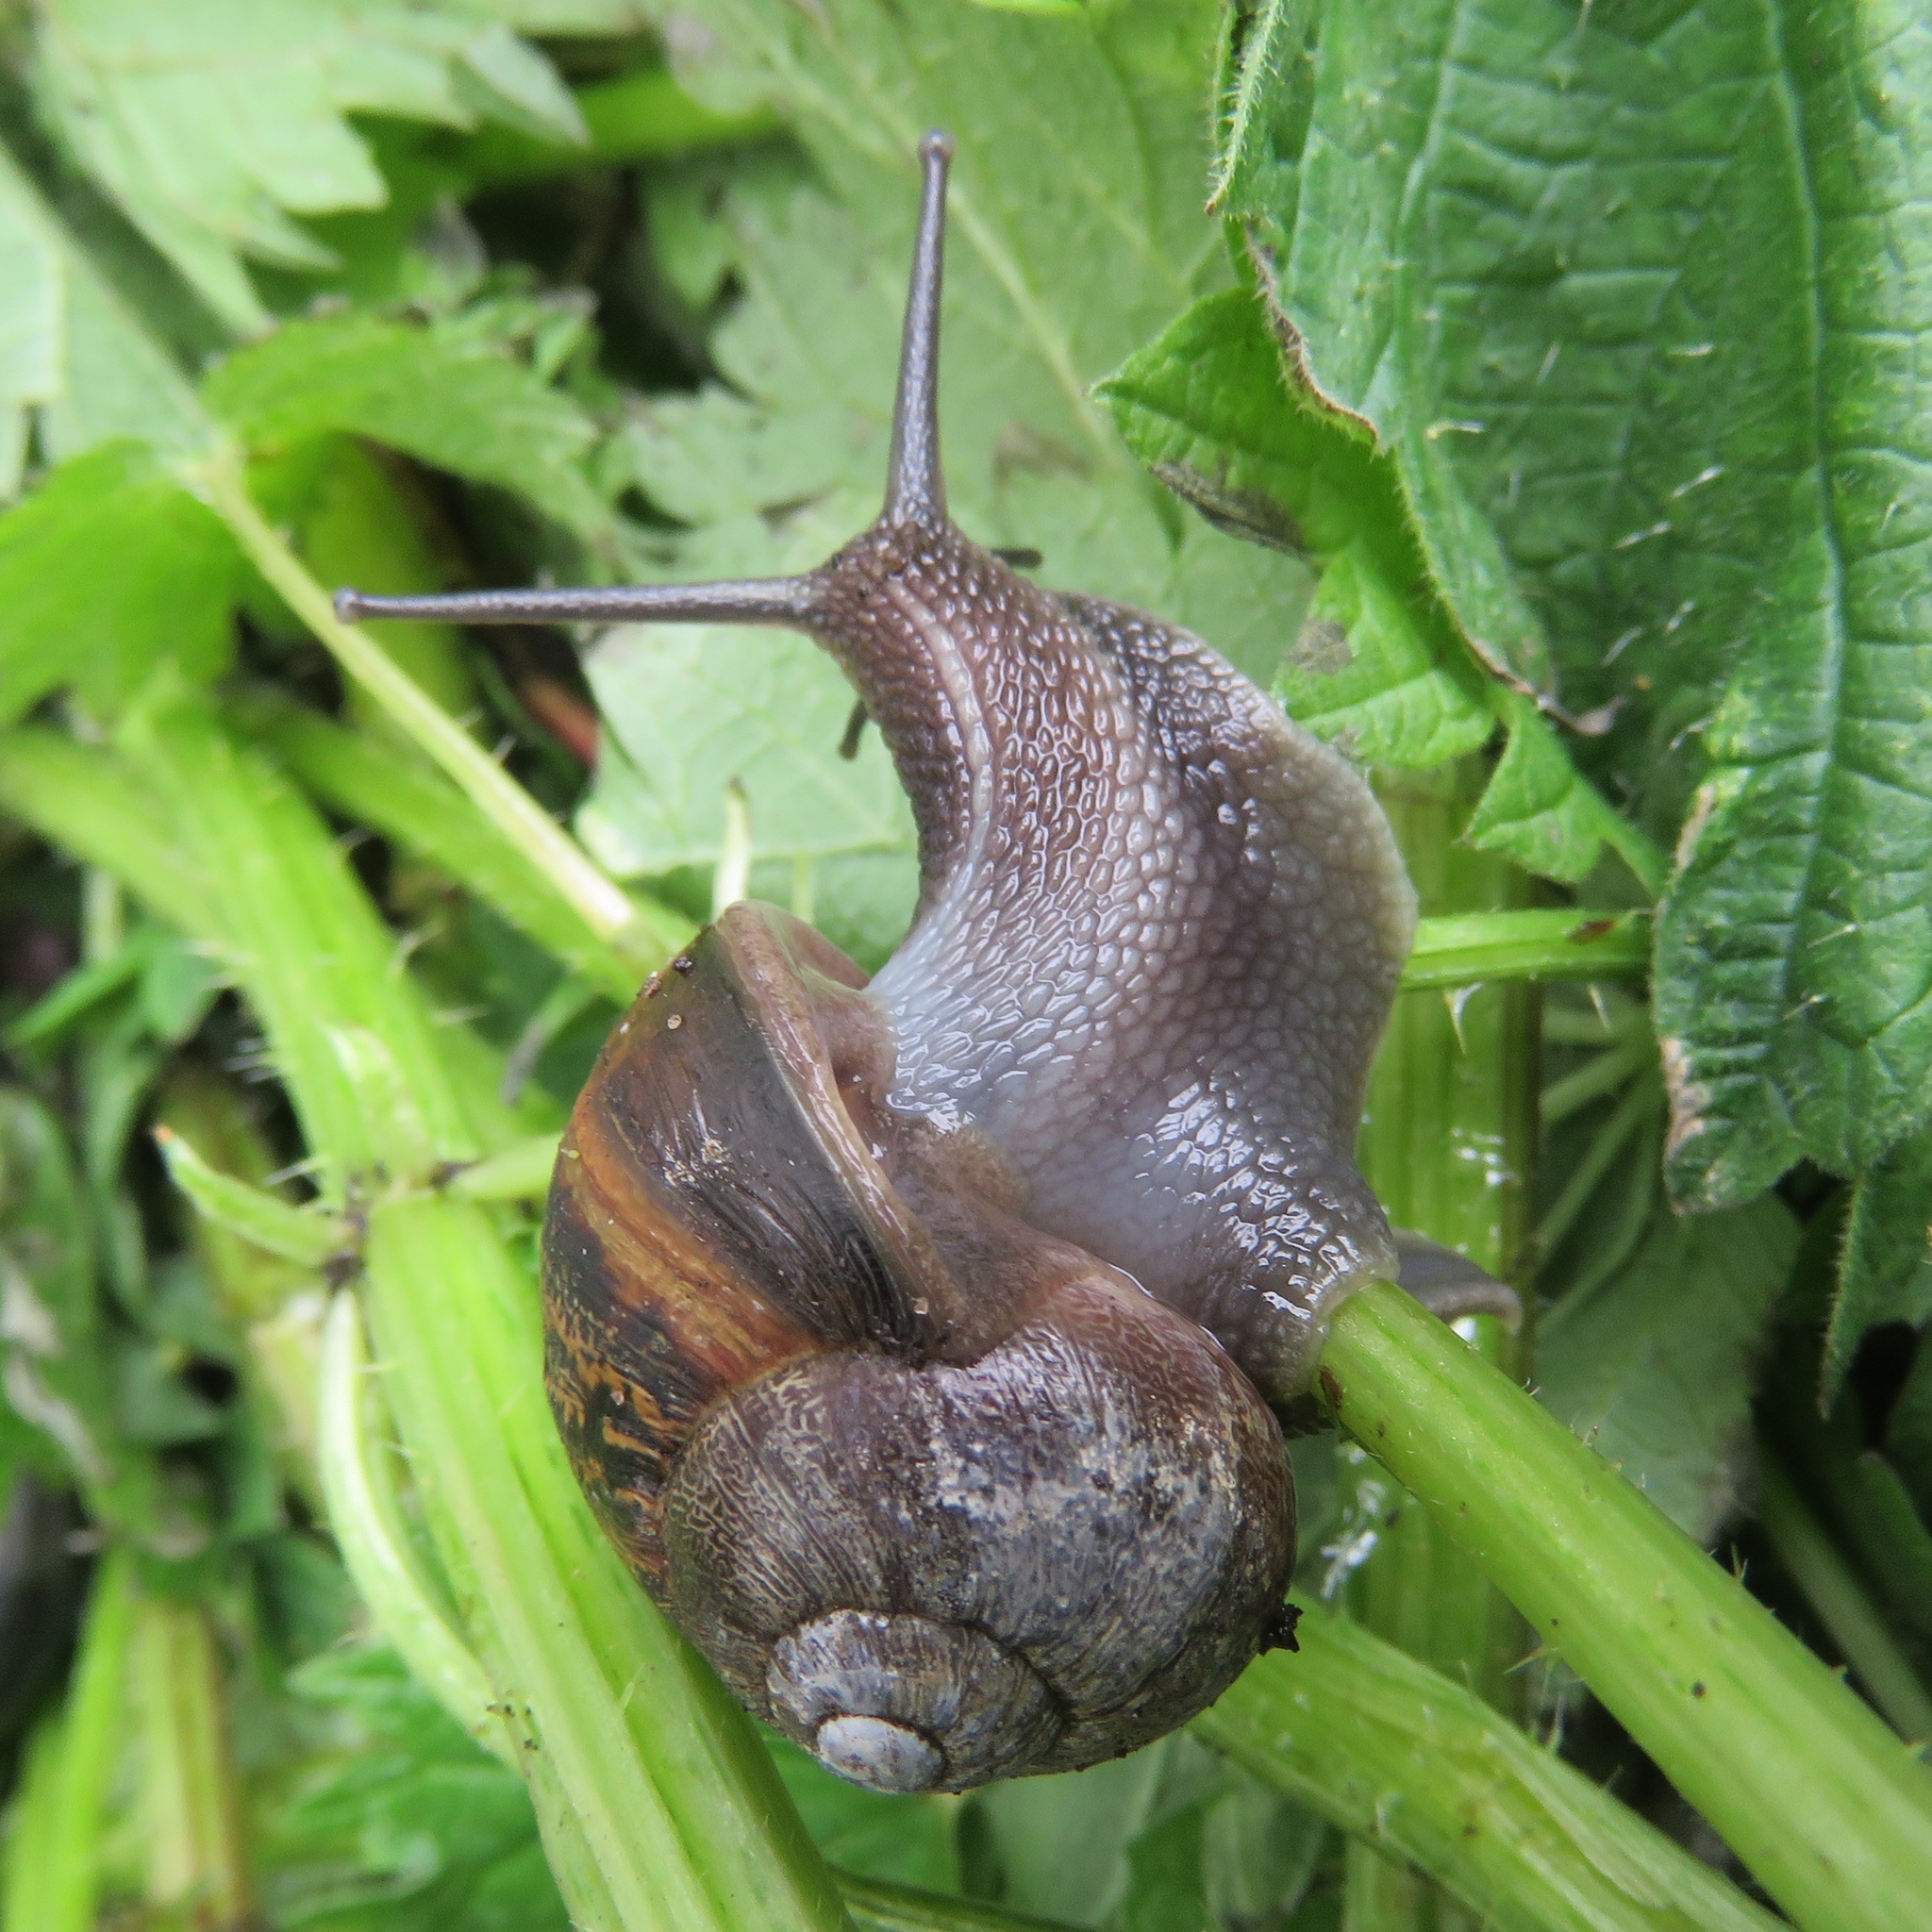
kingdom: Animalia
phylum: Mollusca
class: Gastropoda
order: Stylommatophora
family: Helicidae
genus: Cornu
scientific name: Cornu aspersum
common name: Brown garden snail
